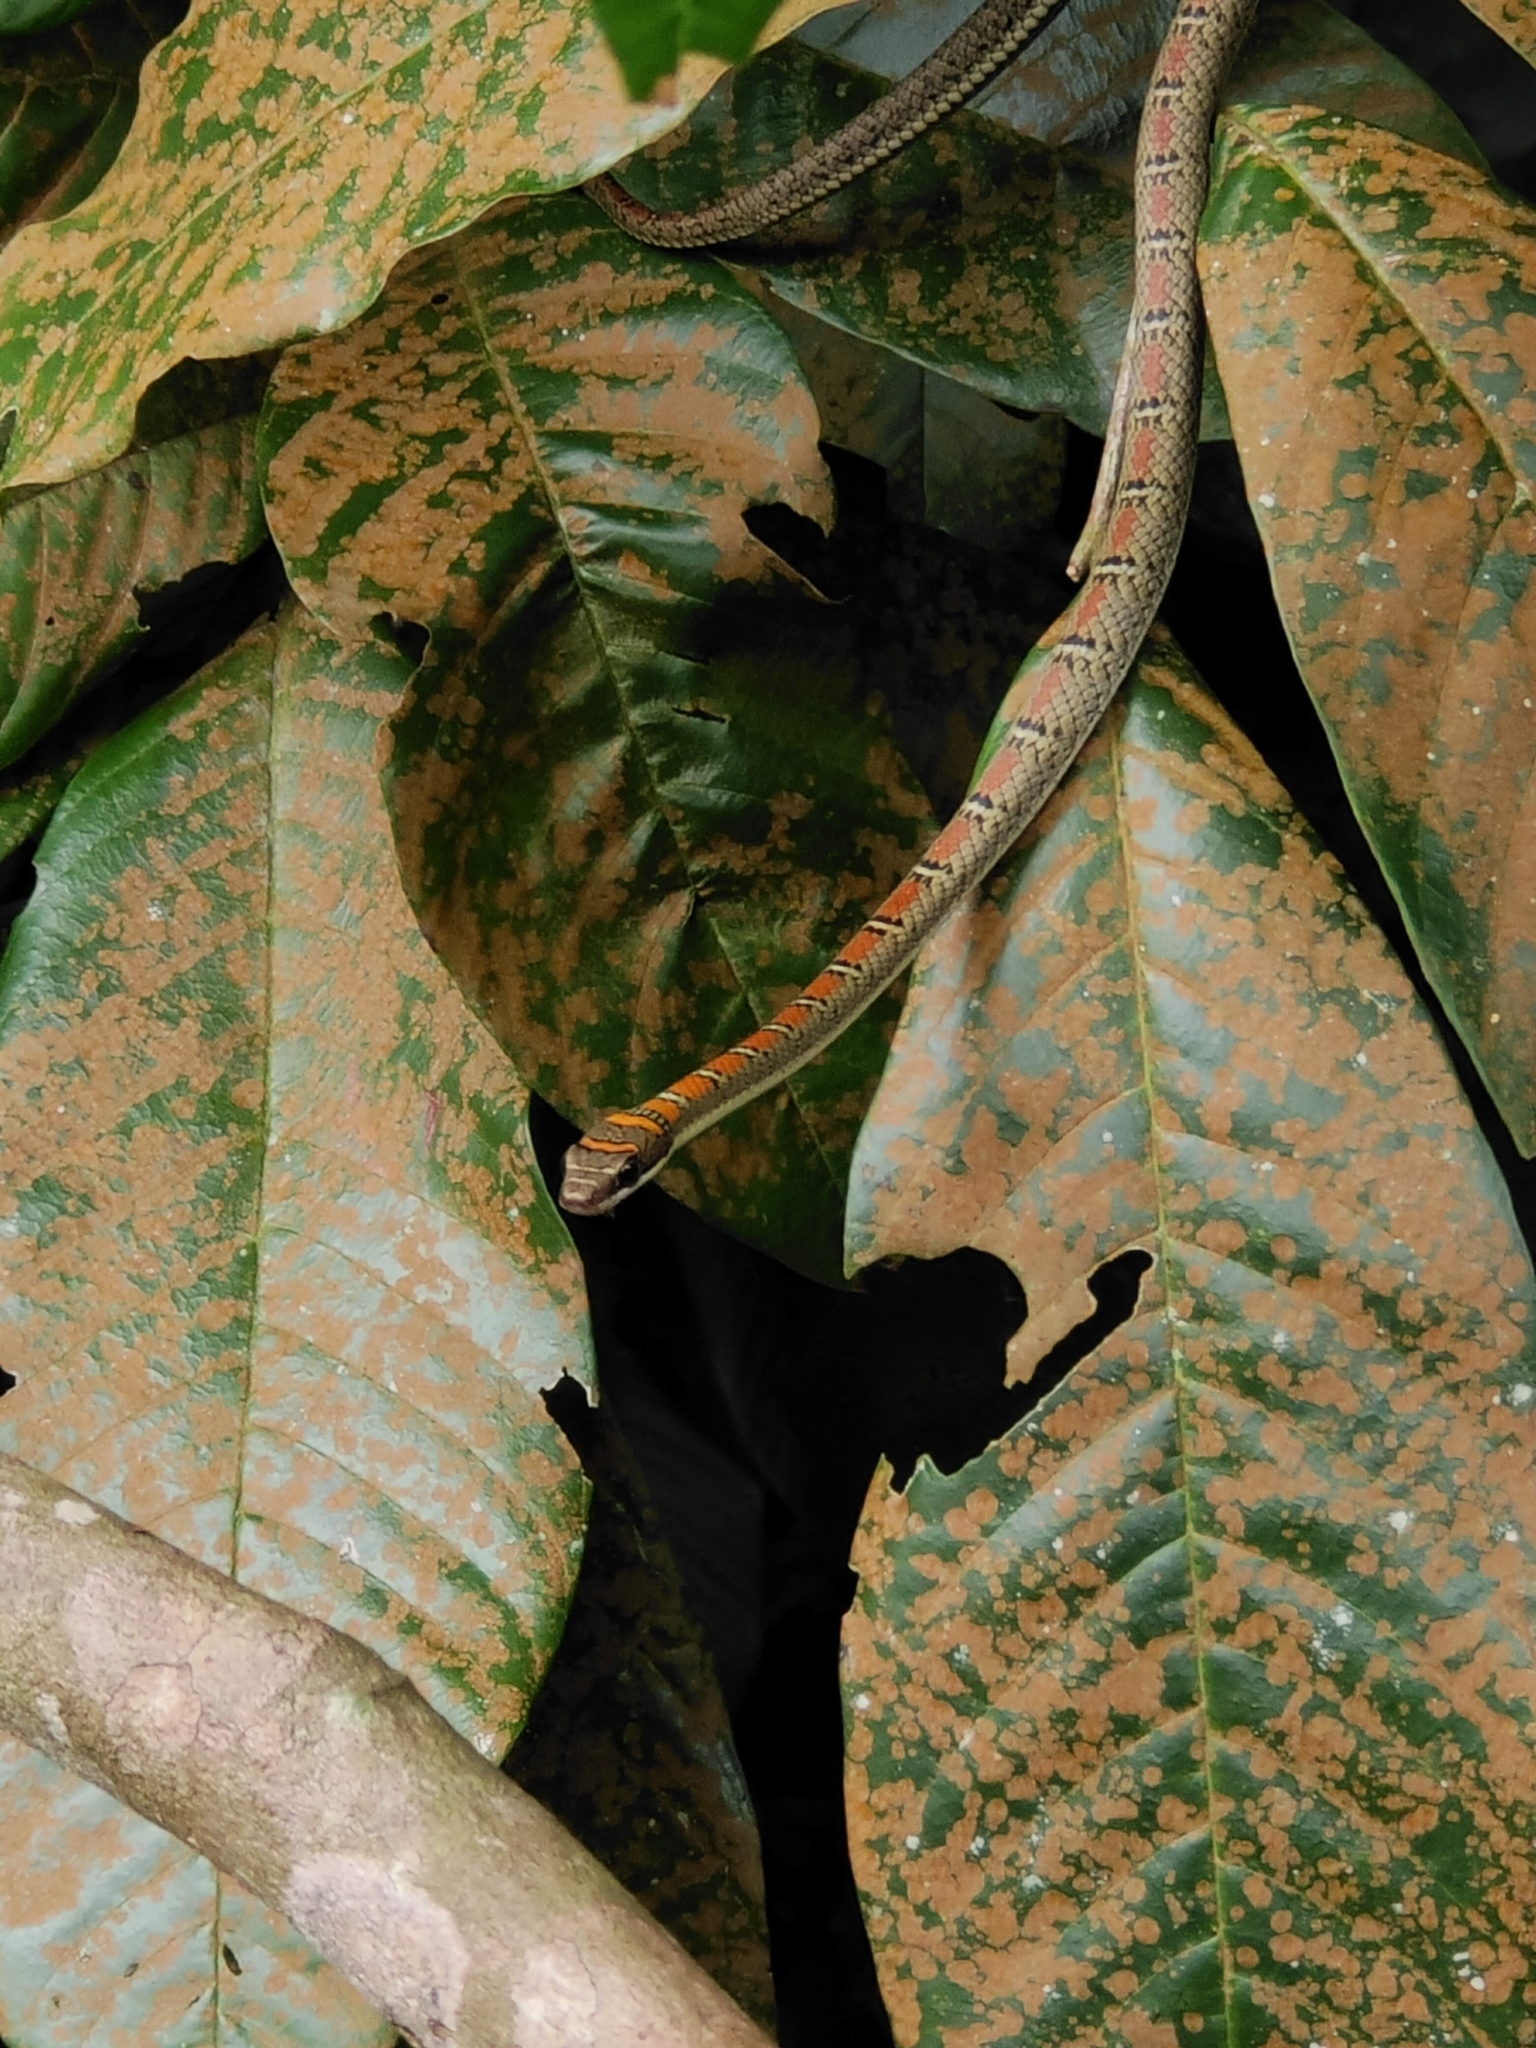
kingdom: Animalia
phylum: Chordata
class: Squamata
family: Colubridae
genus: Chrysopelea
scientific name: Chrysopelea pelias
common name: Twin-barred tree snake
